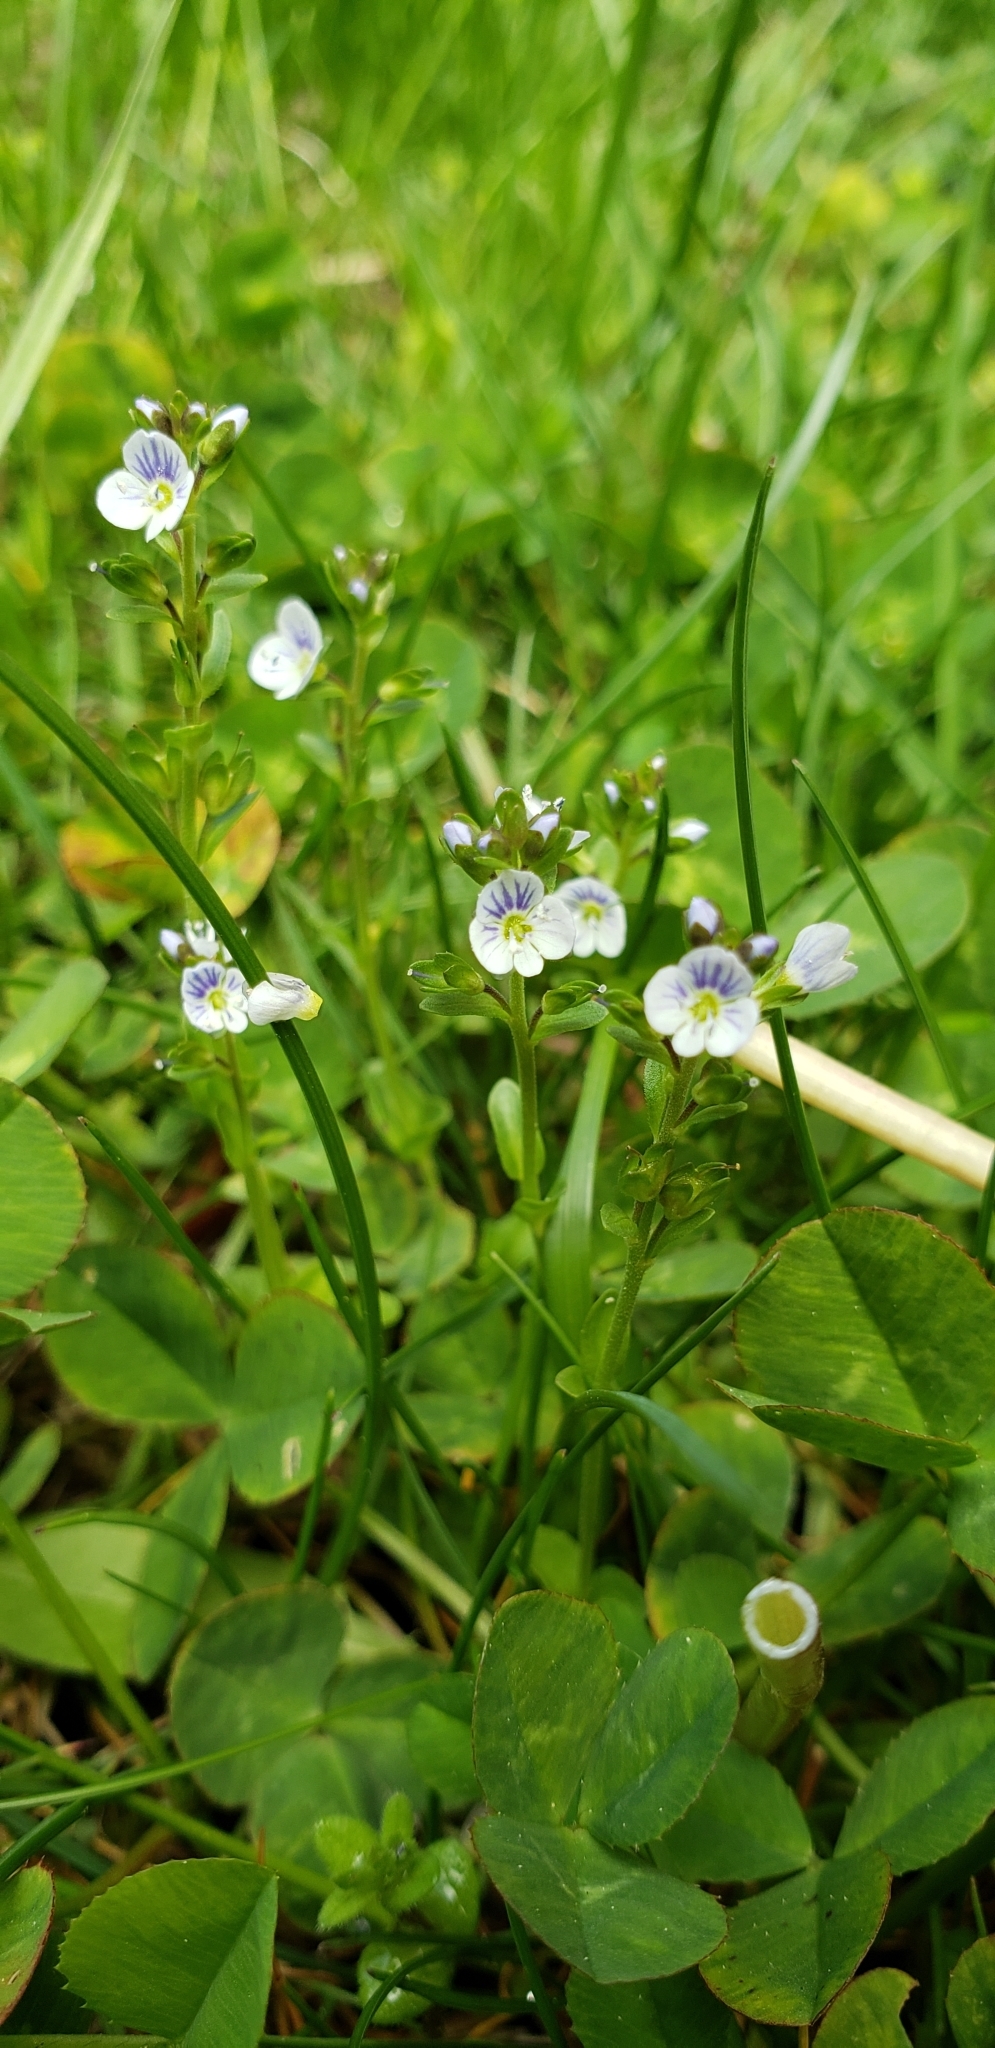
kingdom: Plantae
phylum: Tracheophyta
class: Magnoliopsida
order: Lamiales
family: Plantaginaceae
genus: Veronica
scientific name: Veronica serpyllifolia
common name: Thyme-leaved speedwell
